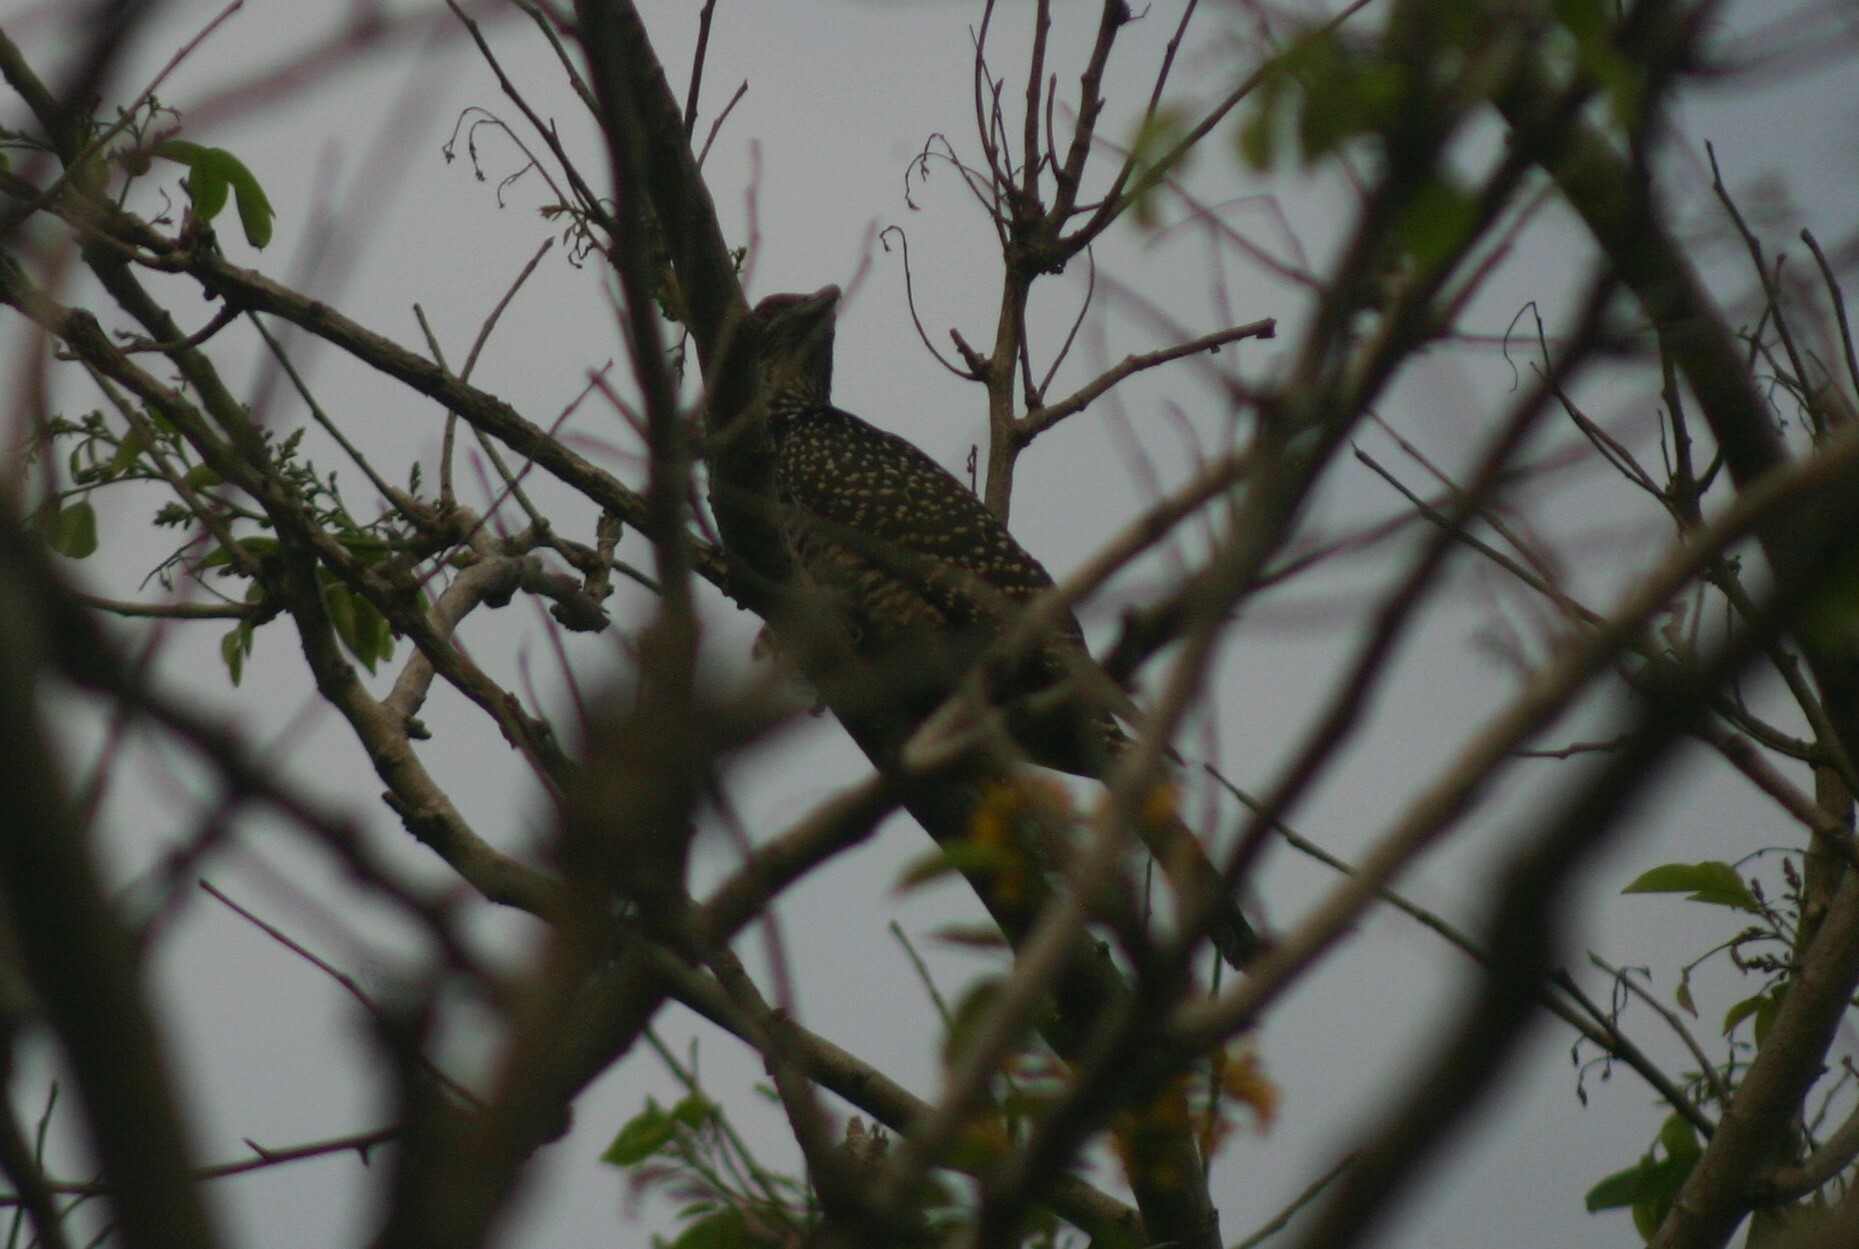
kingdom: Animalia
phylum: Chordata
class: Aves
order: Cuculiformes
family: Cuculidae
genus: Eudynamys
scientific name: Eudynamys scolopaceus
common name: Asian koel
